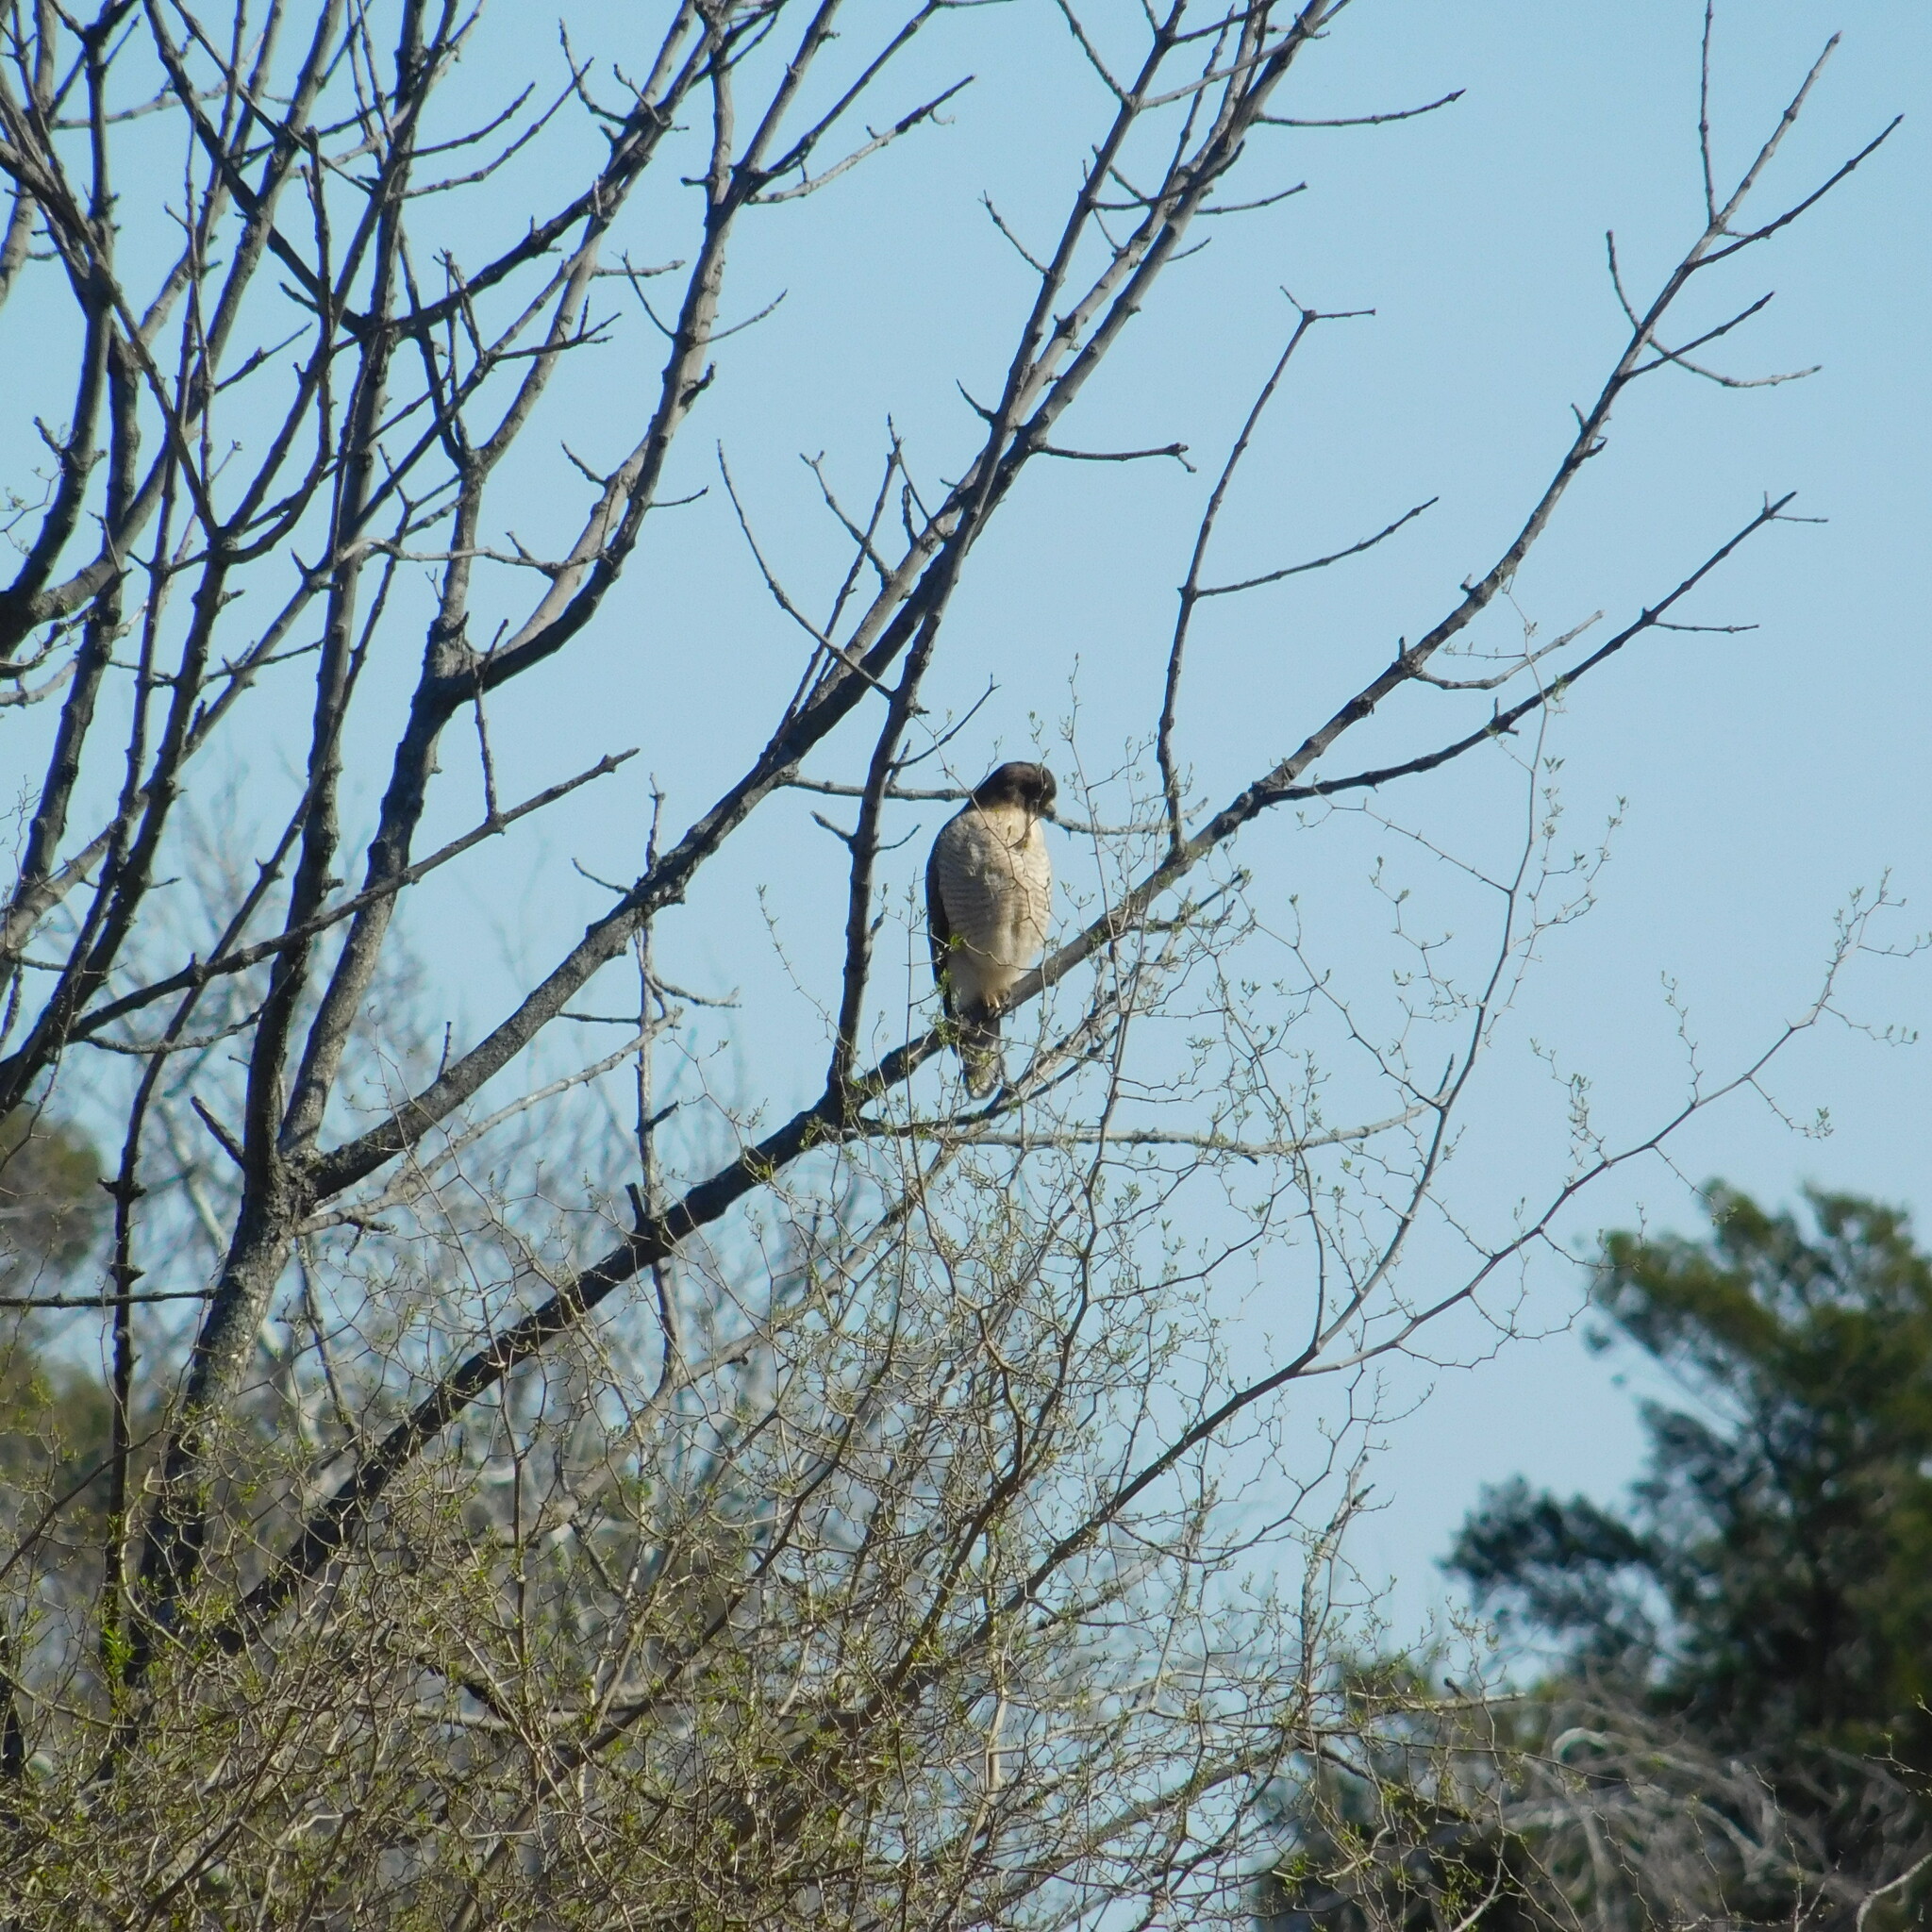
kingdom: Animalia
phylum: Chordata
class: Aves
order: Accipitriformes
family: Accipitridae
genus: Rupornis
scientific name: Rupornis magnirostris
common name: Roadside hawk
